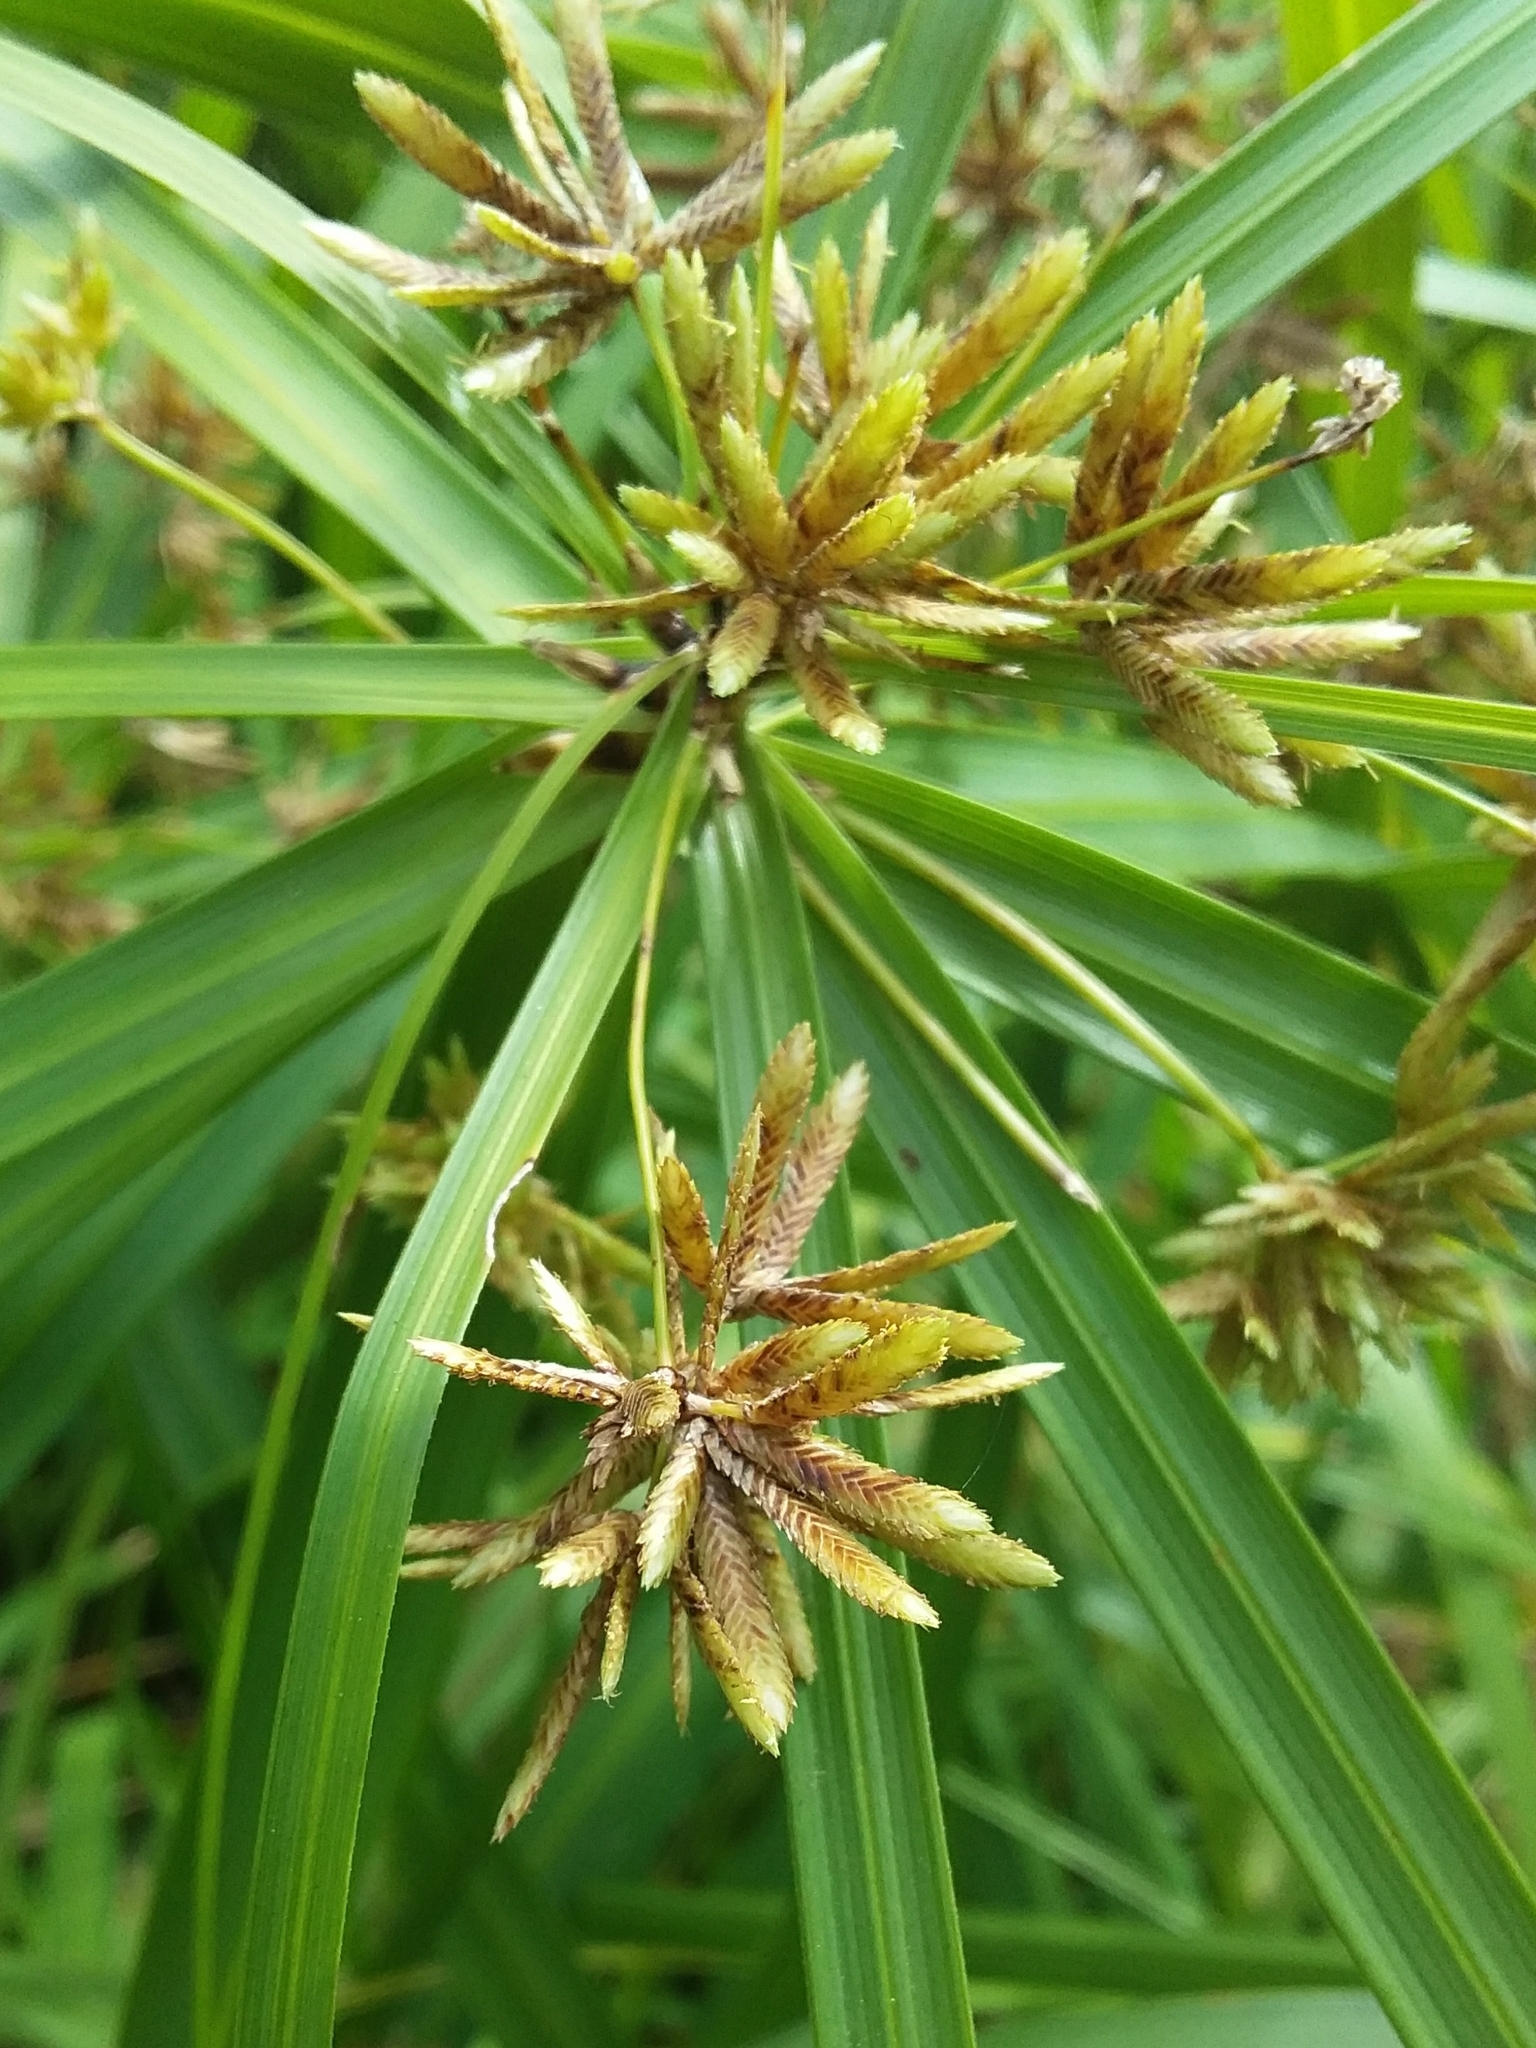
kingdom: Plantae
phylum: Tracheophyta
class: Liliopsida
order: Poales
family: Cyperaceae
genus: Cyperus
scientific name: Cyperus alternifolius
